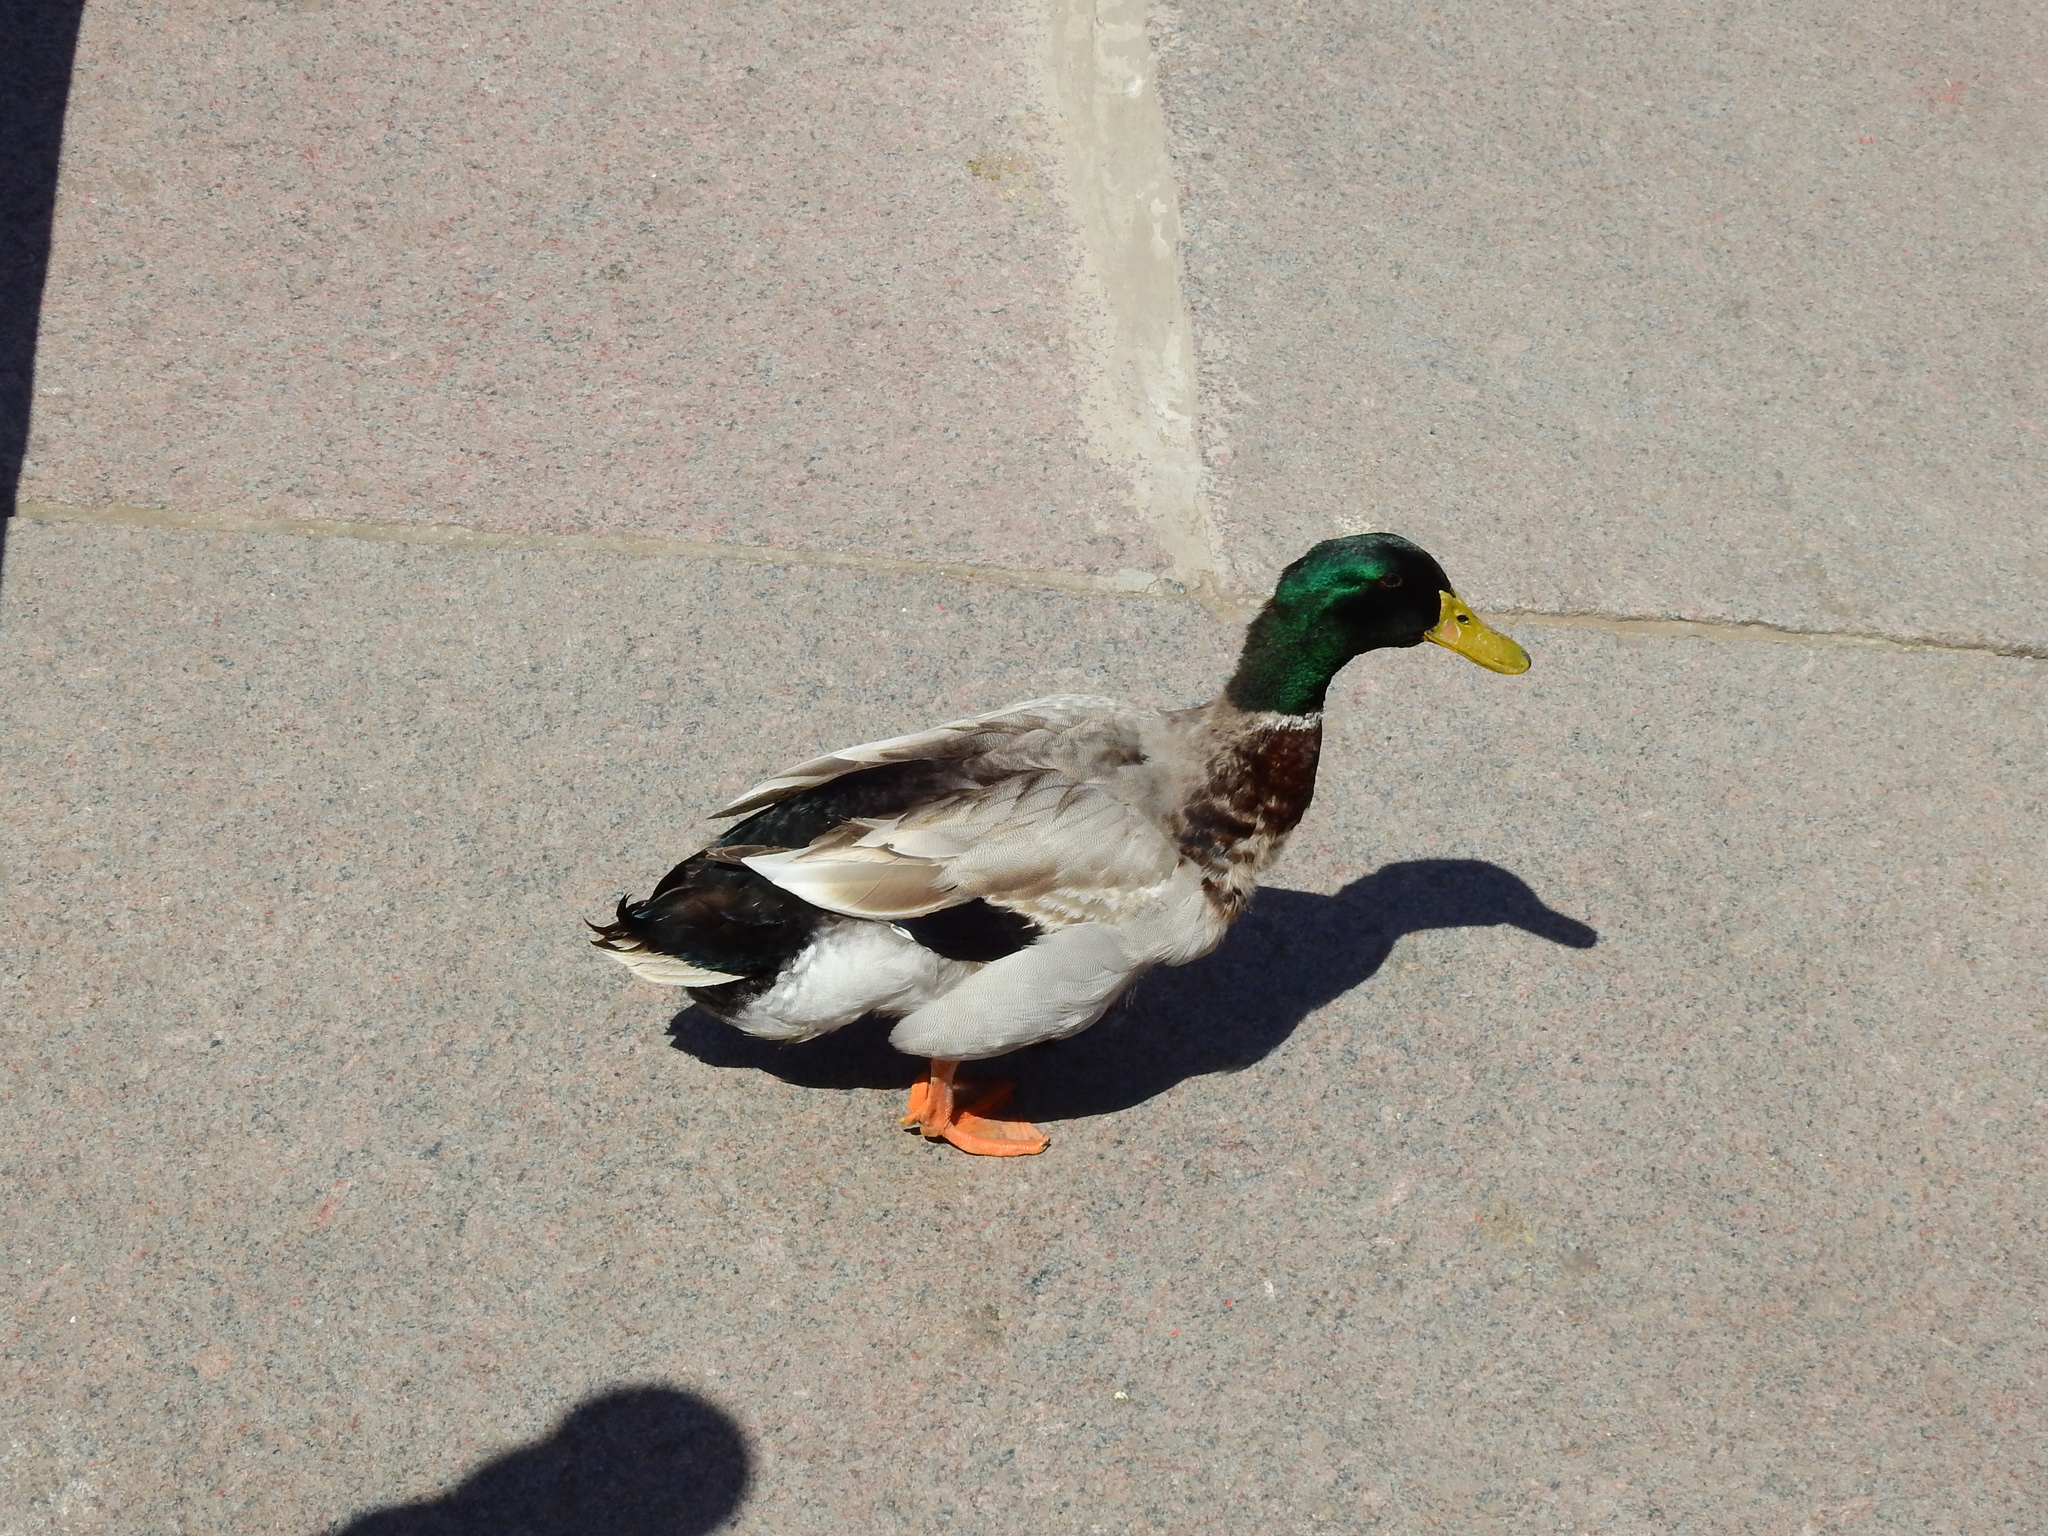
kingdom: Animalia
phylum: Chordata
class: Aves
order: Anseriformes
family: Anatidae
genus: Anas
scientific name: Anas platyrhynchos
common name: Mallard
